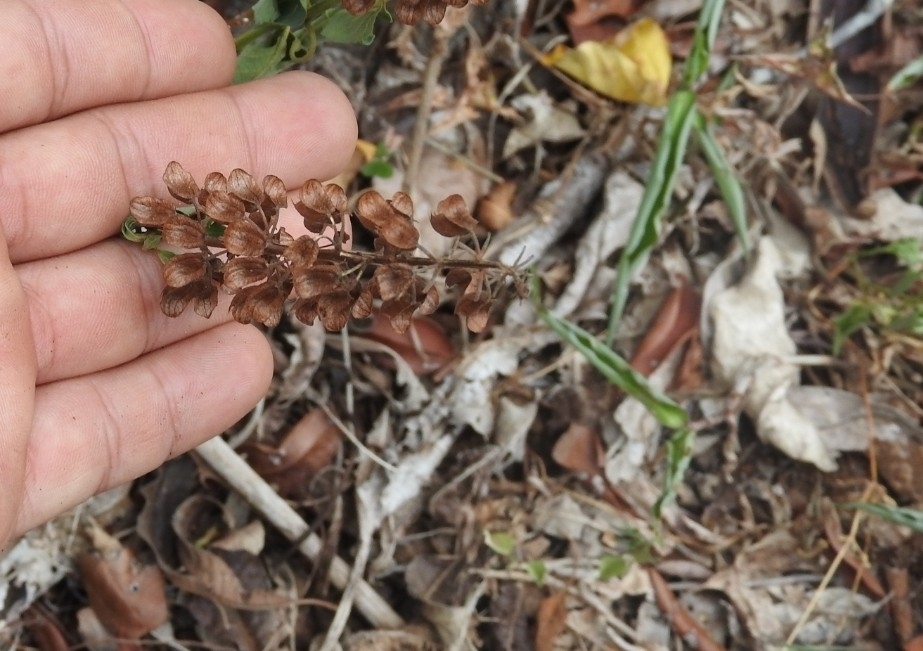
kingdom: Plantae
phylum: Tracheophyta
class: Magnoliopsida
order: Lamiales
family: Lamiaceae
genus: Ocimum
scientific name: Ocimum basilicum
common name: Sweet basil
